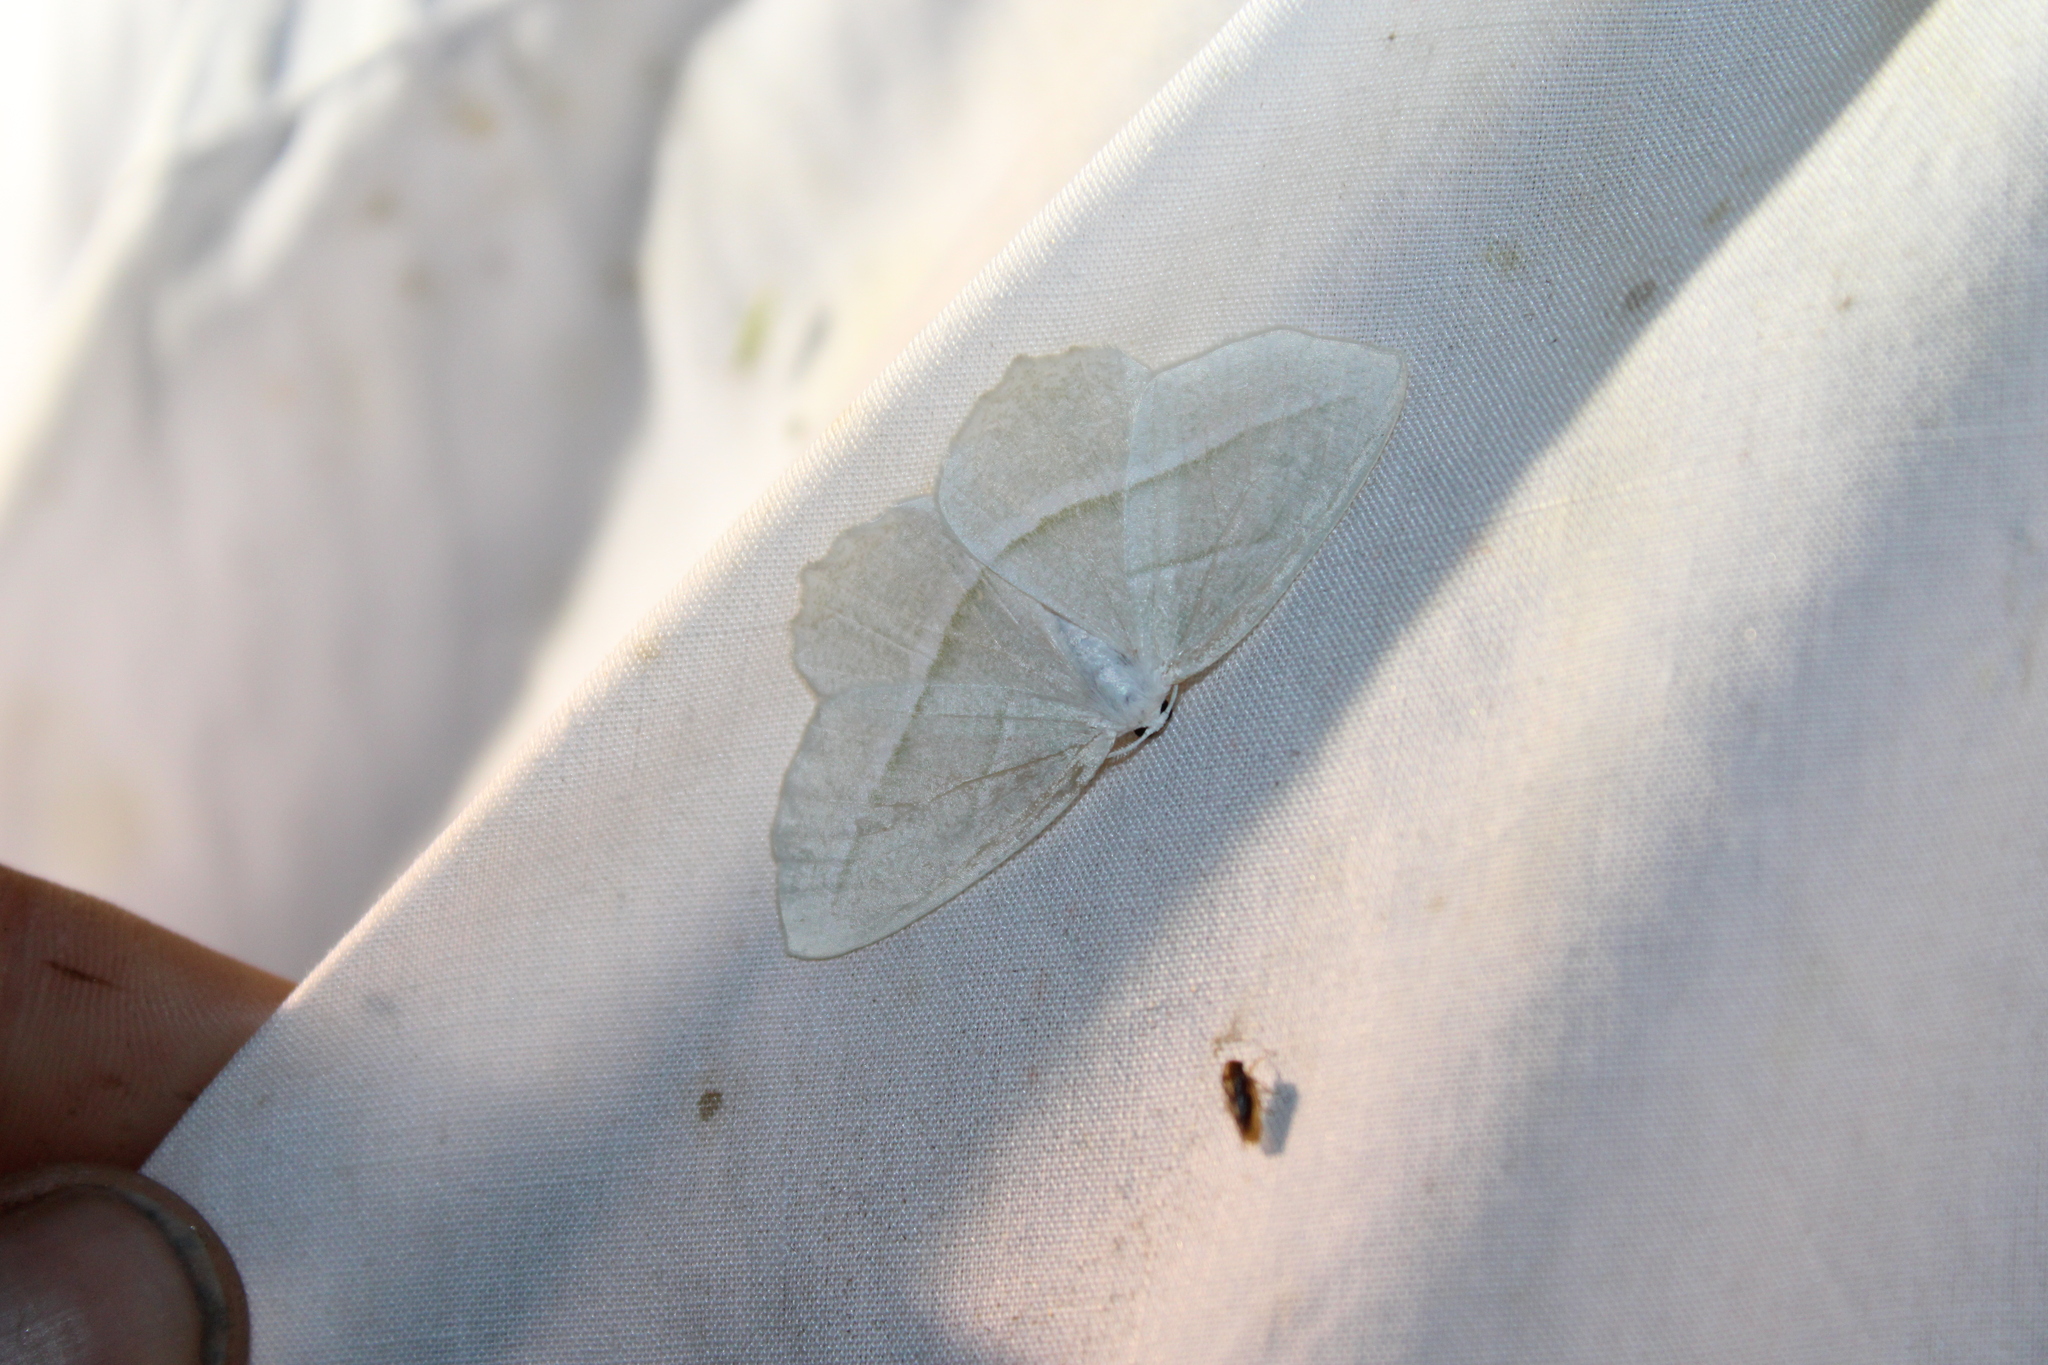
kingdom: Animalia
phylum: Arthropoda
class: Insecta
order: Lepidoptera
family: Geometridae
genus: Campaea
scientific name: Campaea perlata
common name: Fringed looper
